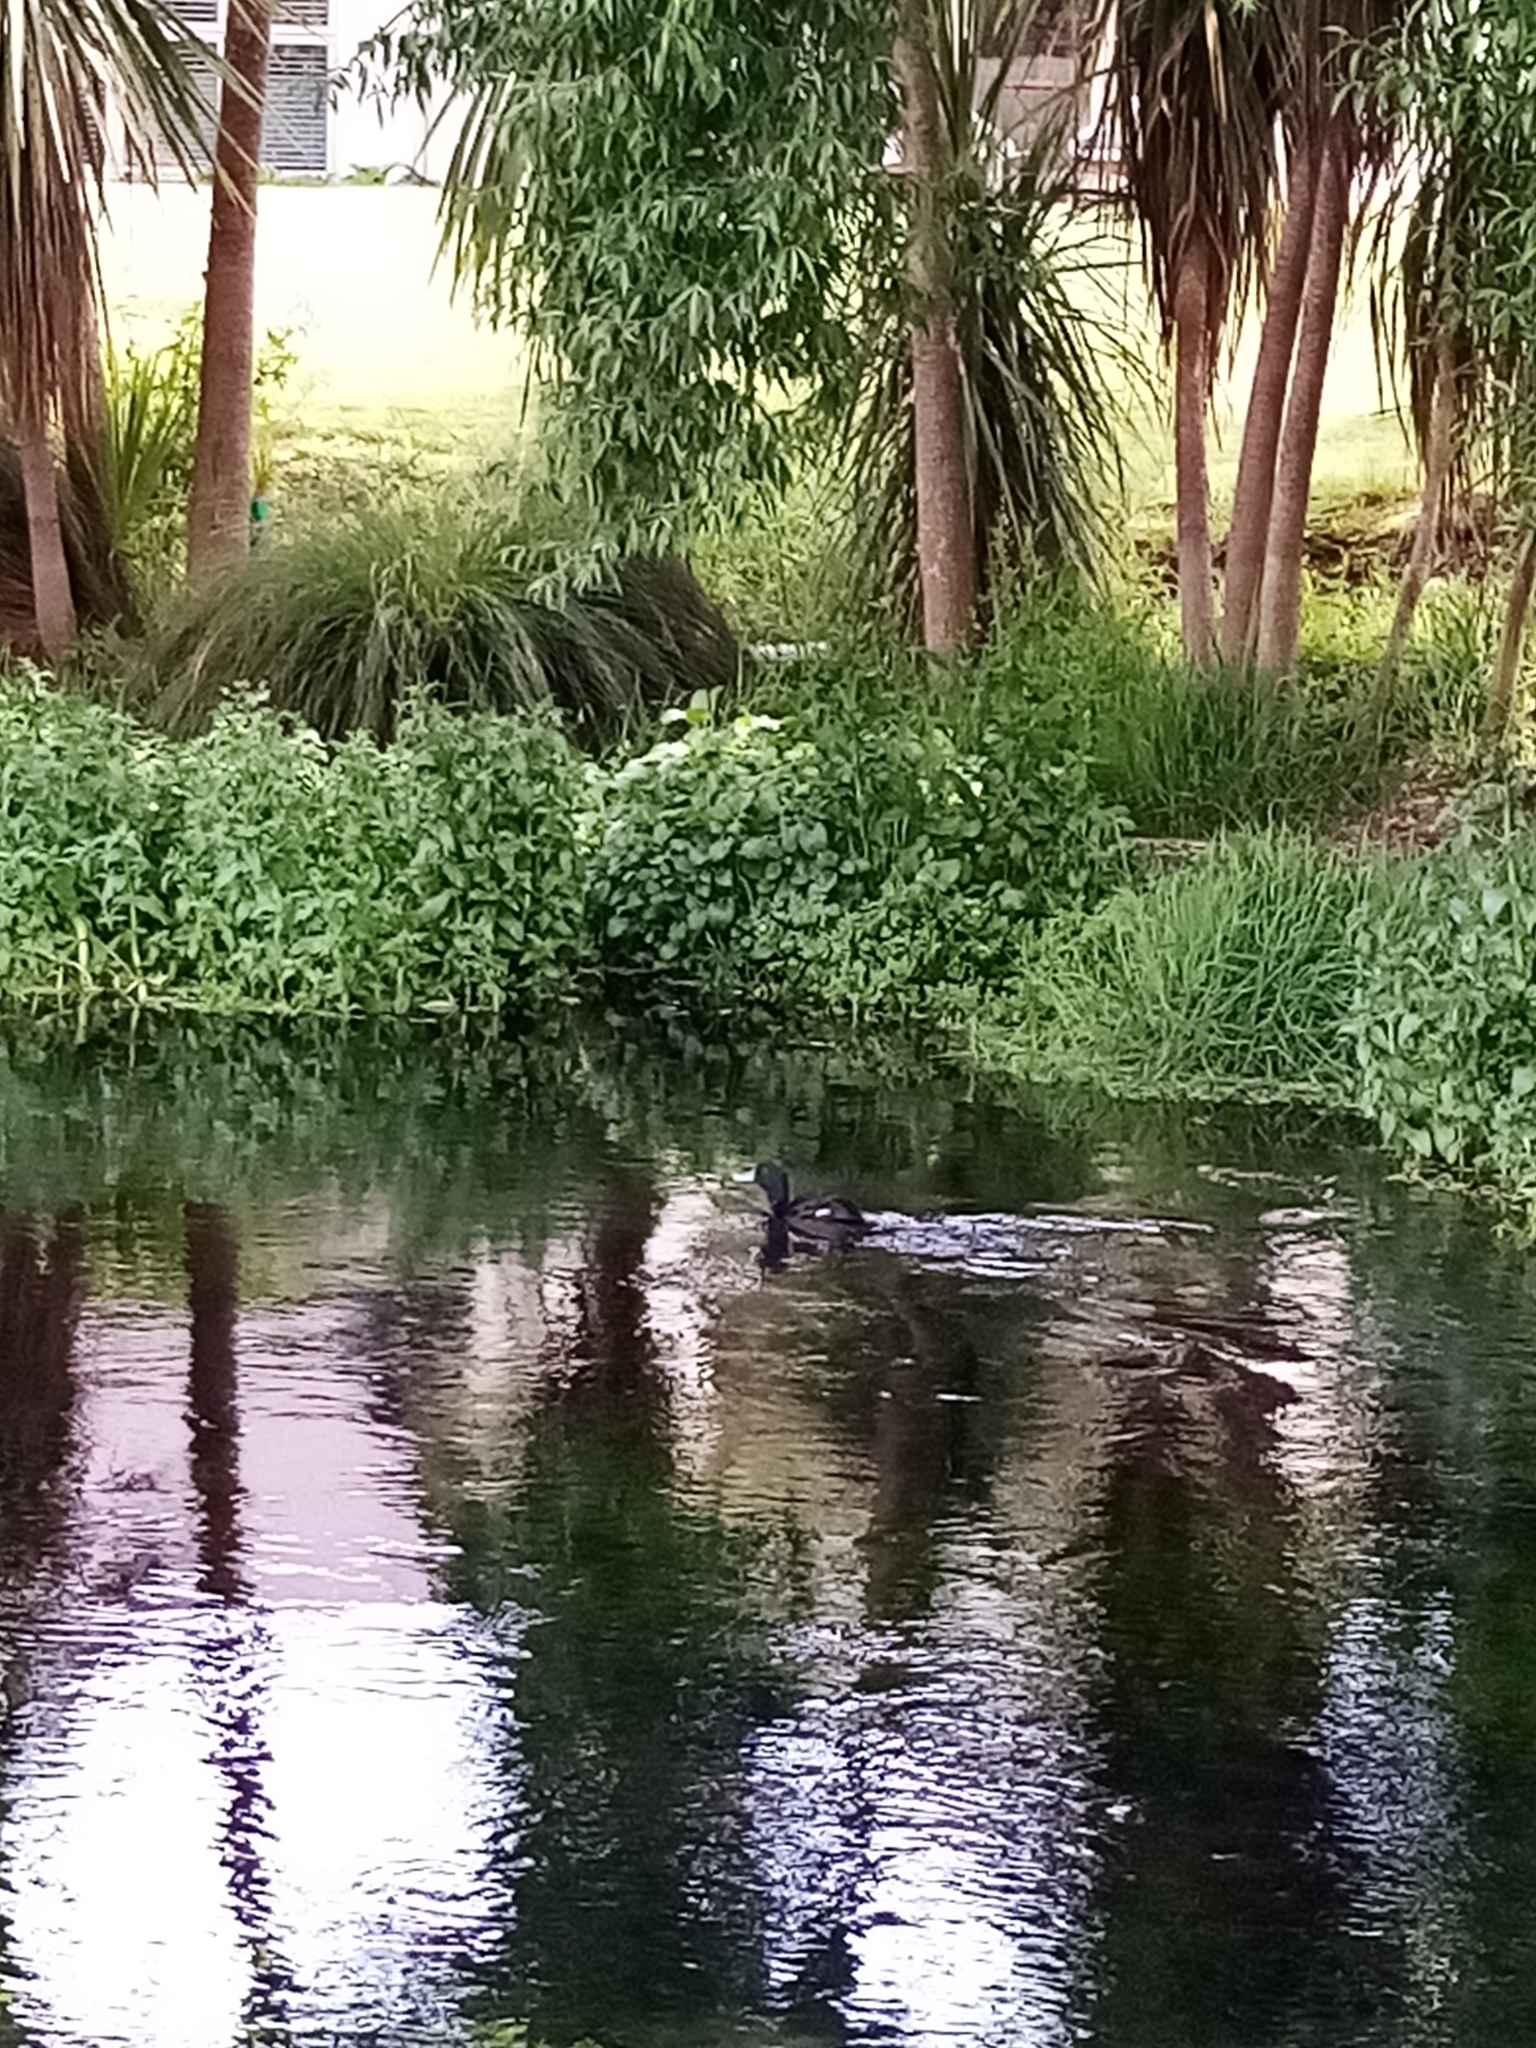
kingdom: Animalia
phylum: Chordata
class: Aves
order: Anseriformes
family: Anatidae
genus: Aythya
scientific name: Aythya novaeseelandiae
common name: New zealand scaup
